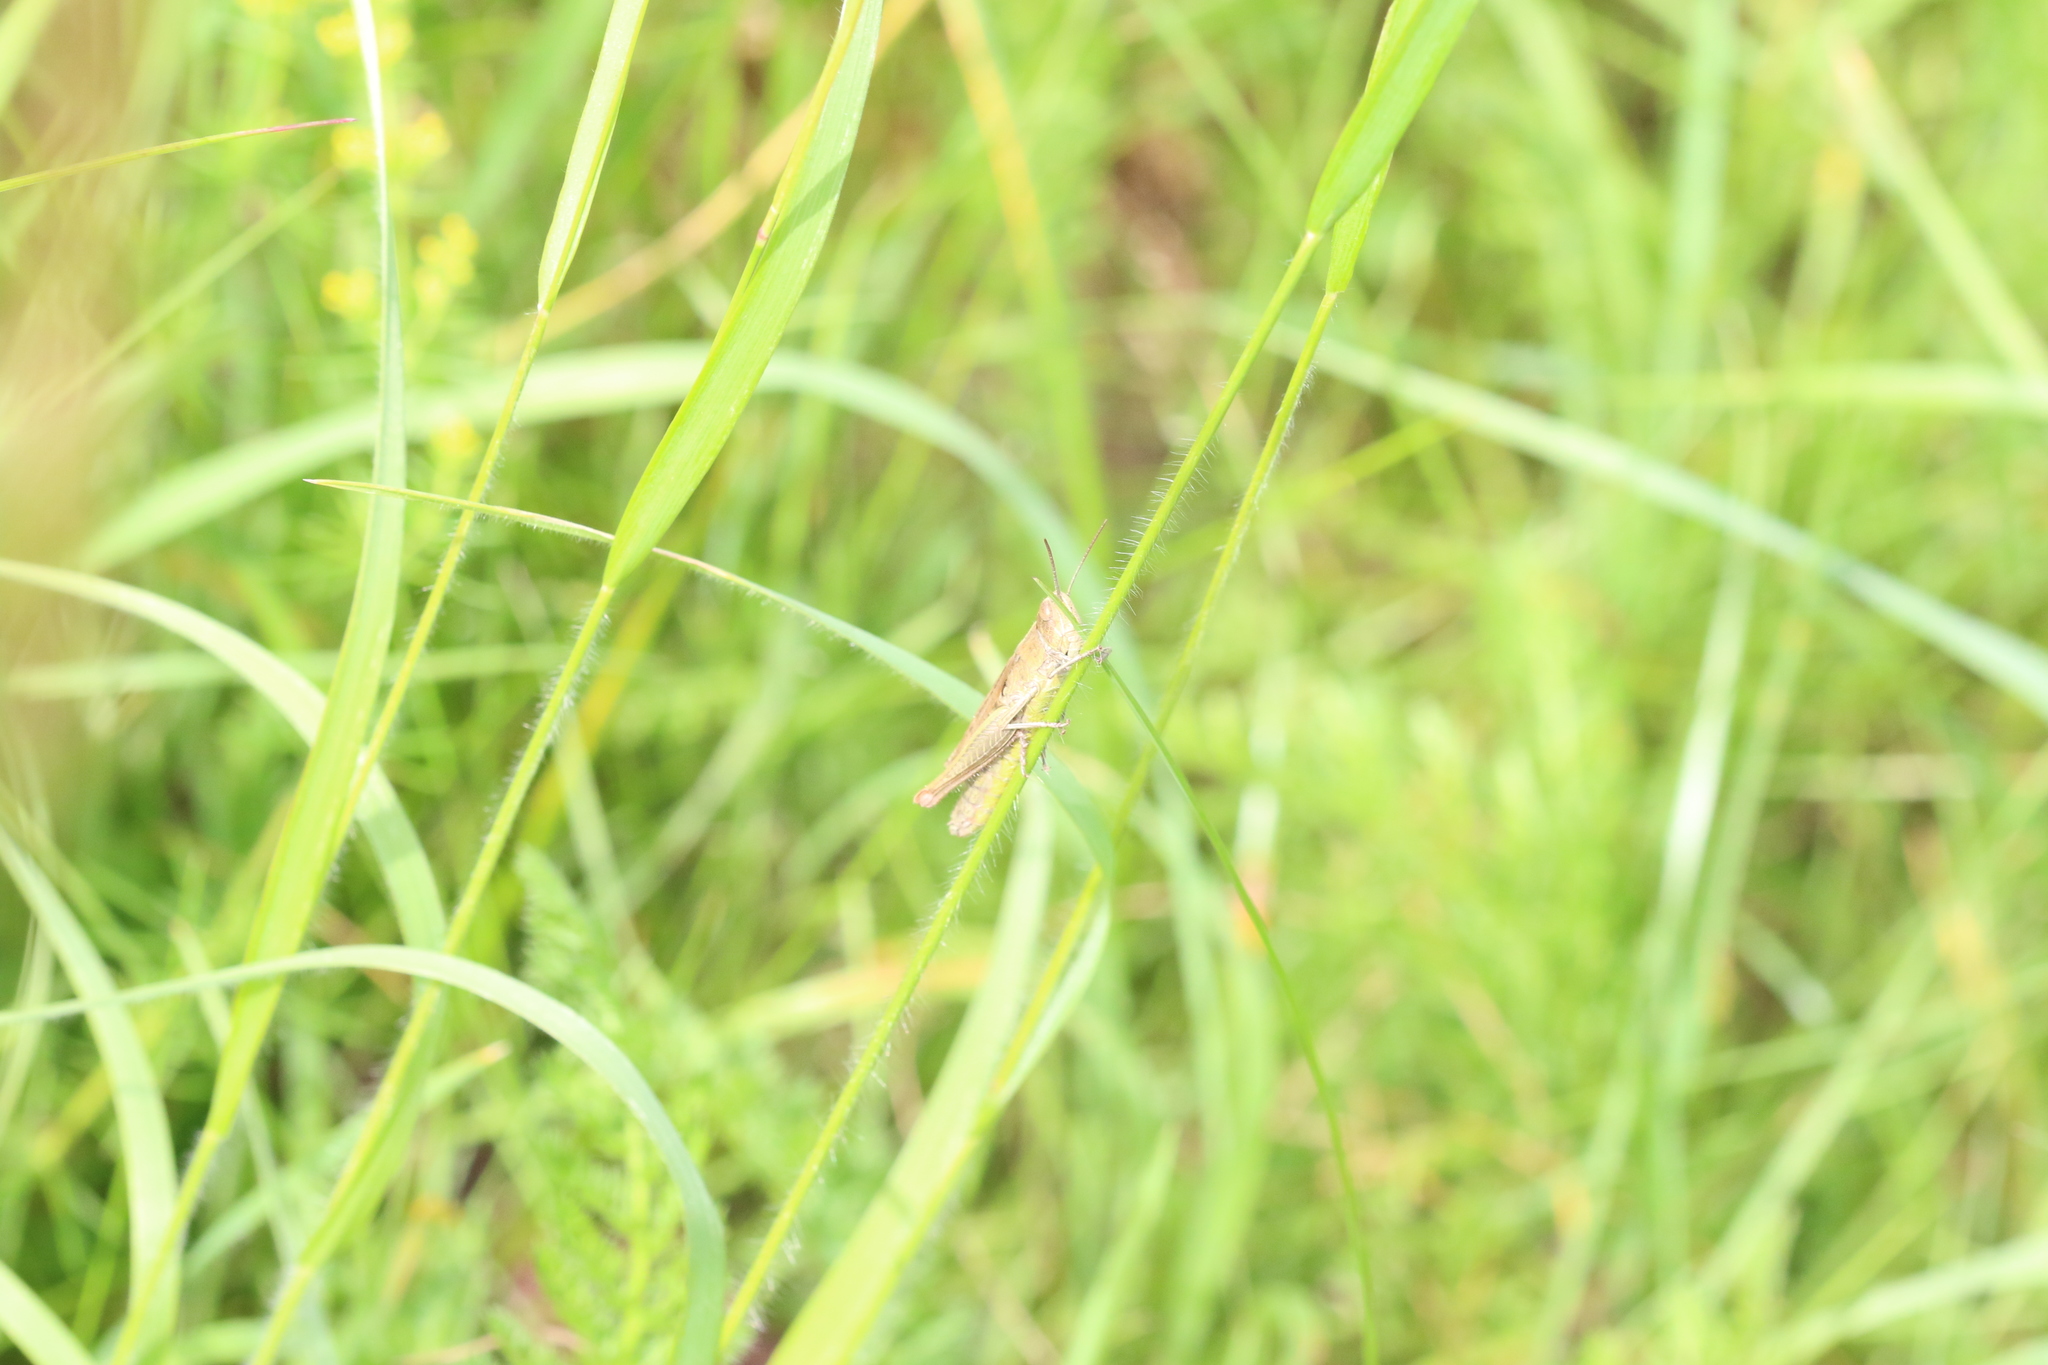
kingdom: Animalia
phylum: Arthropoda
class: Insecta
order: Orthoptera
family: Acrididae
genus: Chorthippus
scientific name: Chorthippus dorsatus
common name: Steppe grasshopper
